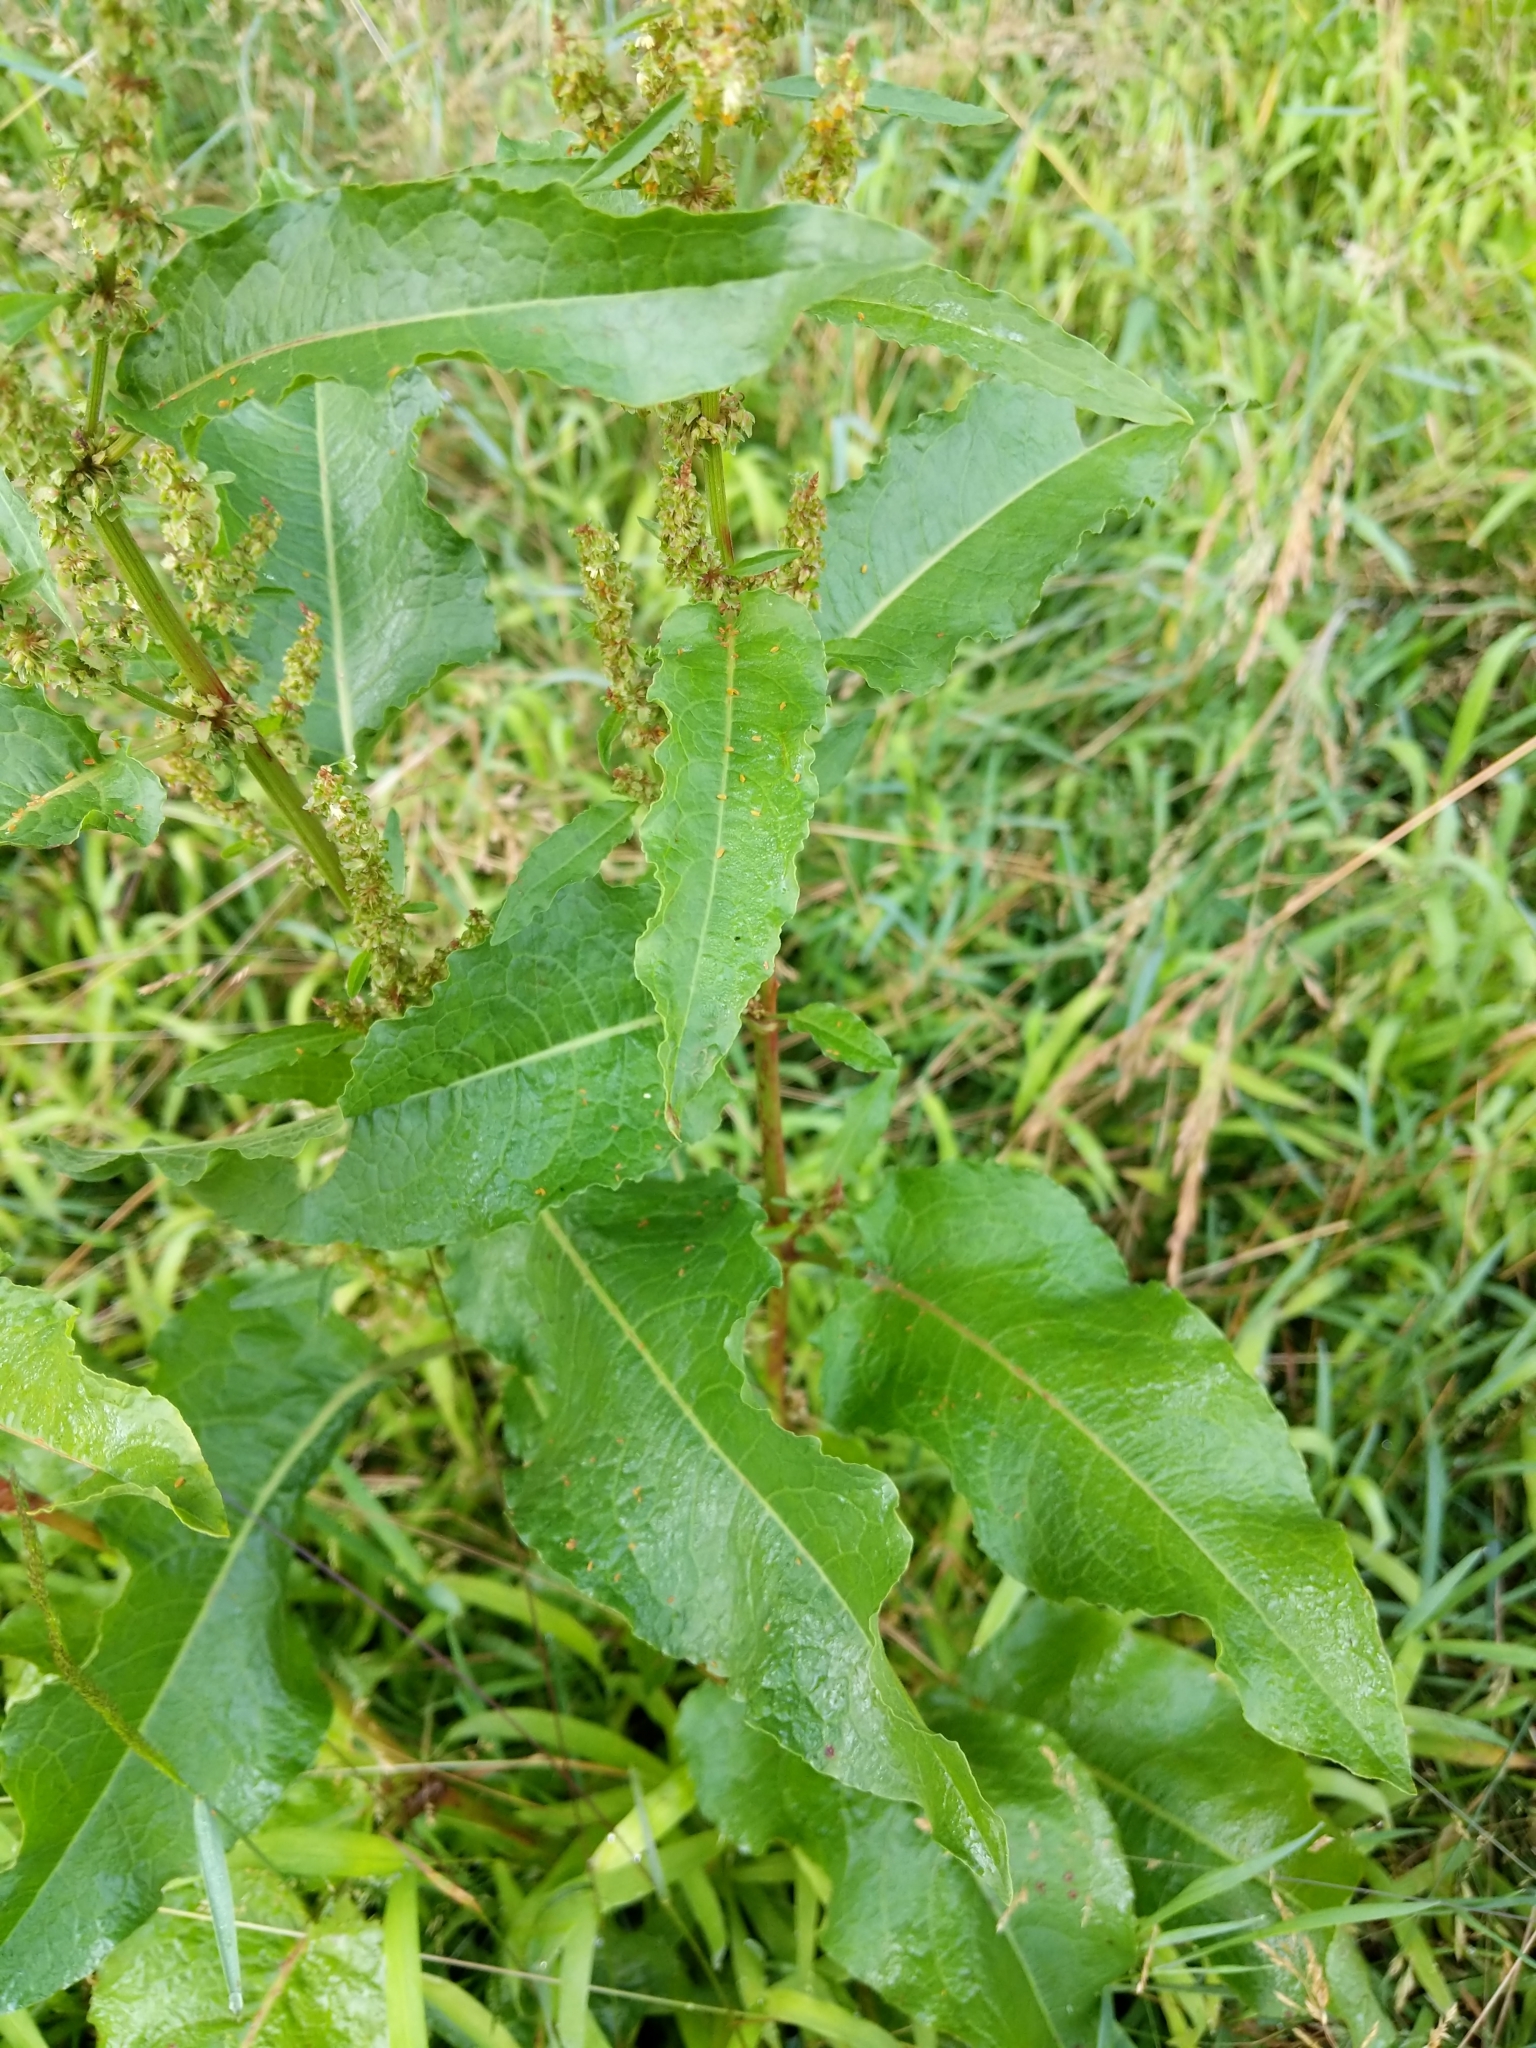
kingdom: Plantae
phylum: Tracheophyta
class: Magnoliopsida
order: Caryophyllales
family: Polygonaceae
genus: Rumex
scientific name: Rumex crispus
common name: Curled dock
